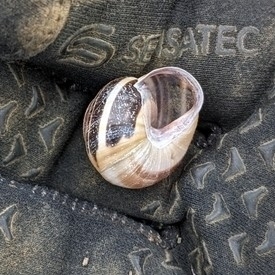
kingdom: Animalia
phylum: Mollusca
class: Gastropoda
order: Stylommatophora
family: Helicidae
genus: Cepaea
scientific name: Cepaea nemoralis
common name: Grovesnail
